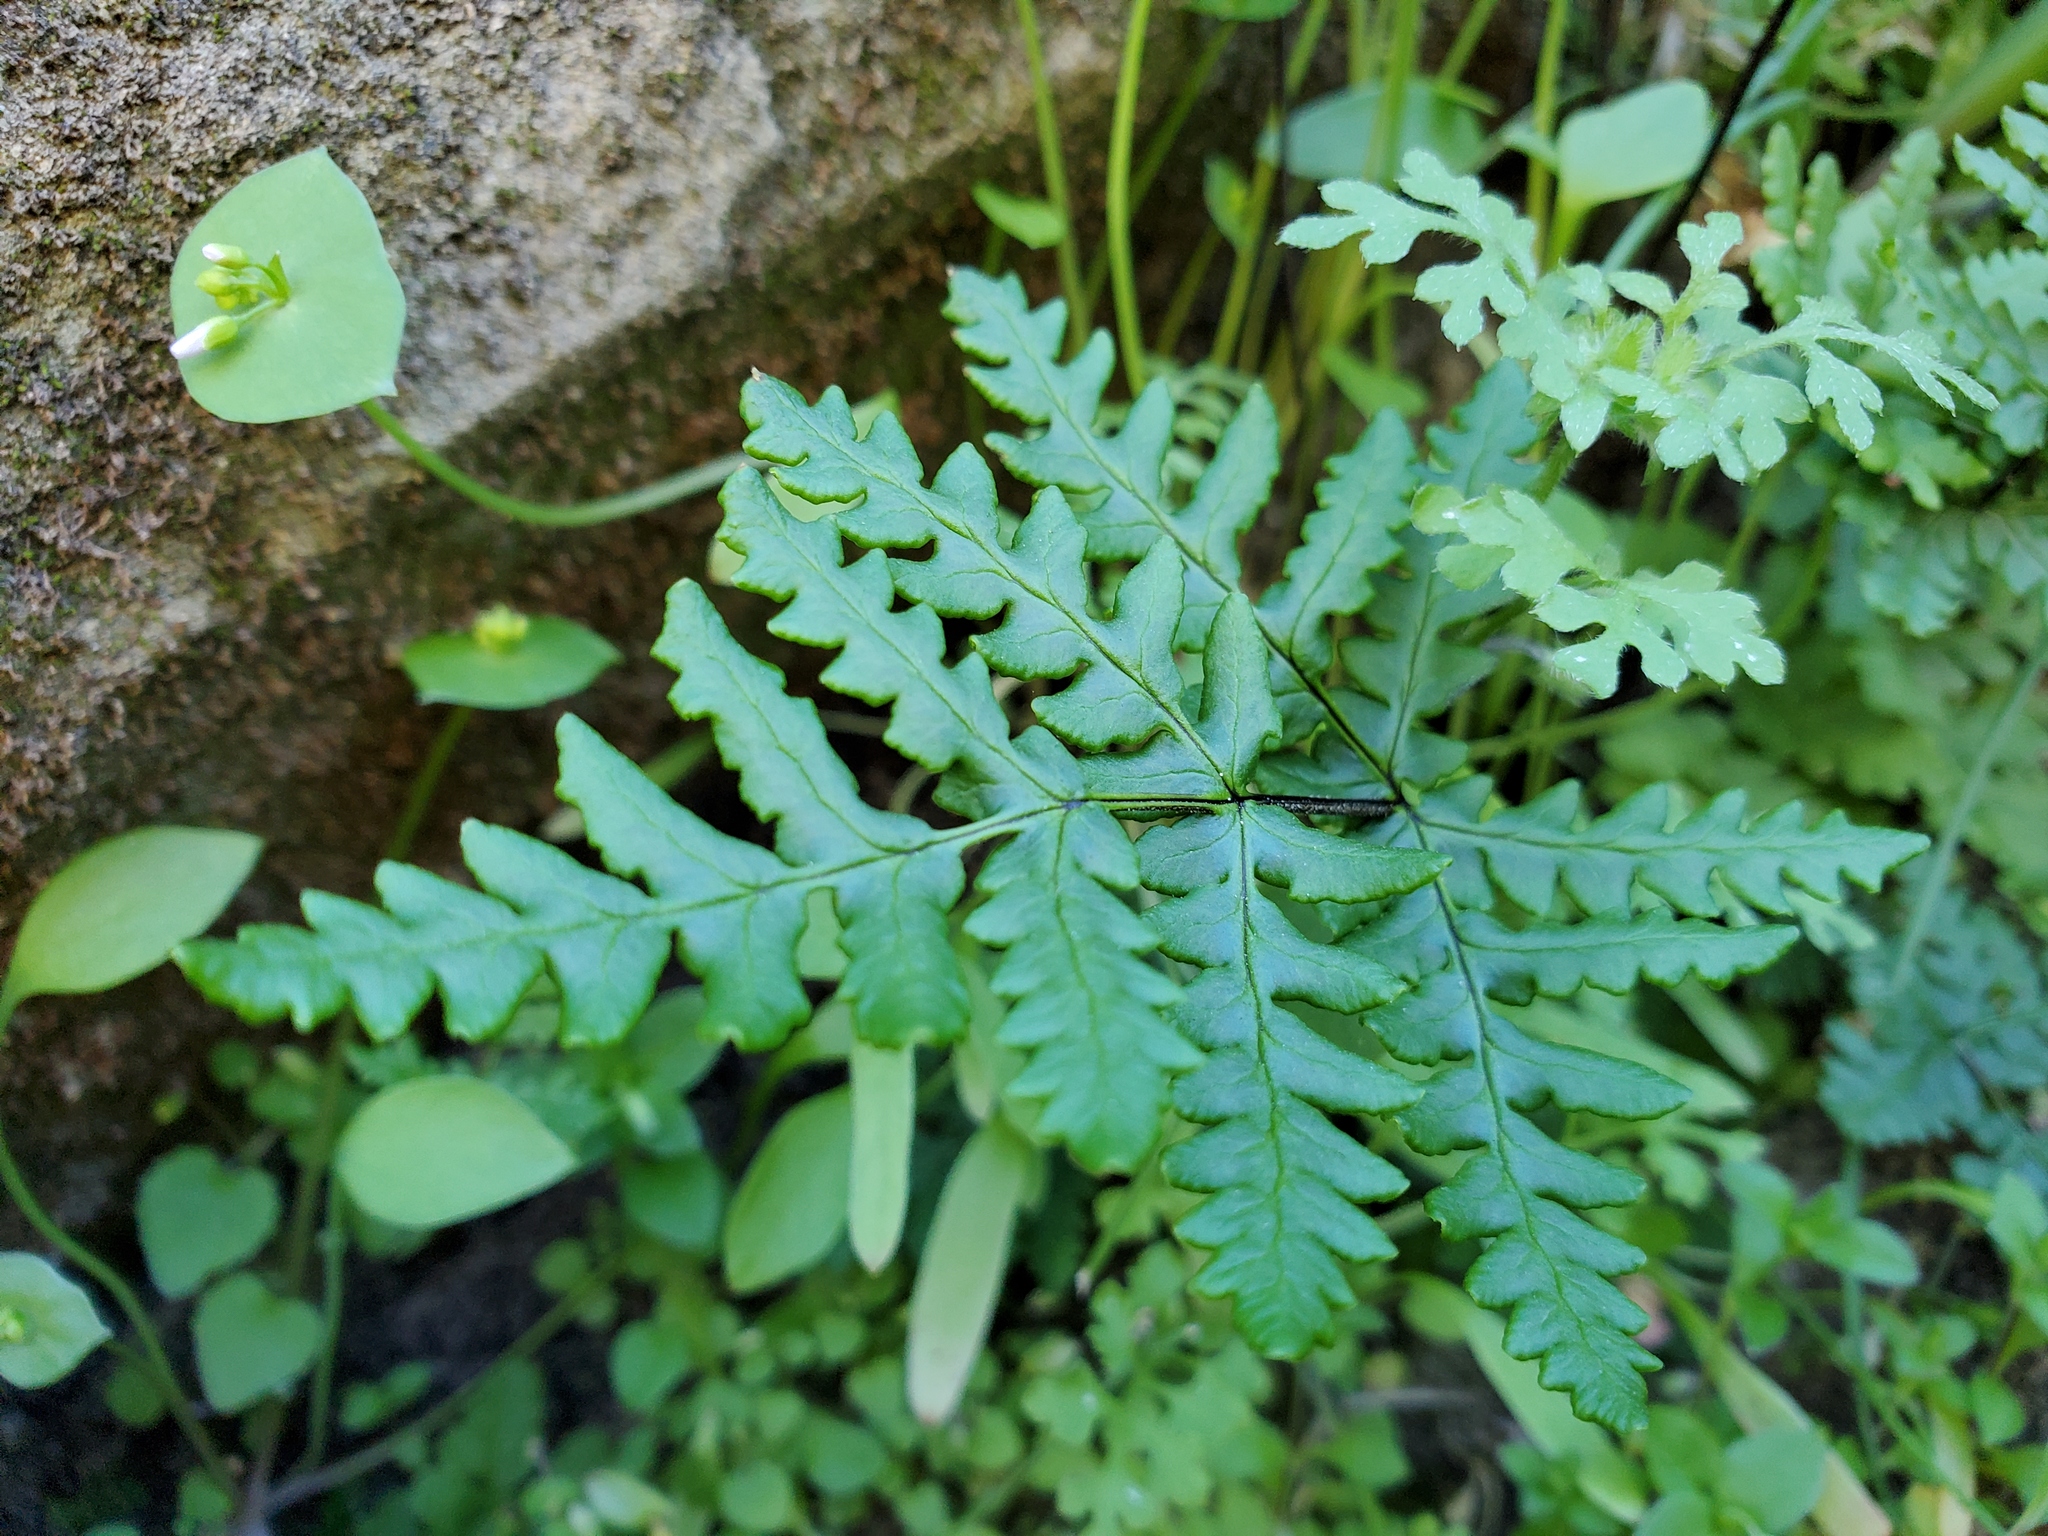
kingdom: Plantae
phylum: Tracheophyta
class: Polypodiopsida
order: Polypodiales
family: Pteridaceae
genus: Pentagramma
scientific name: Pentagramma triangularis
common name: Gold fern
